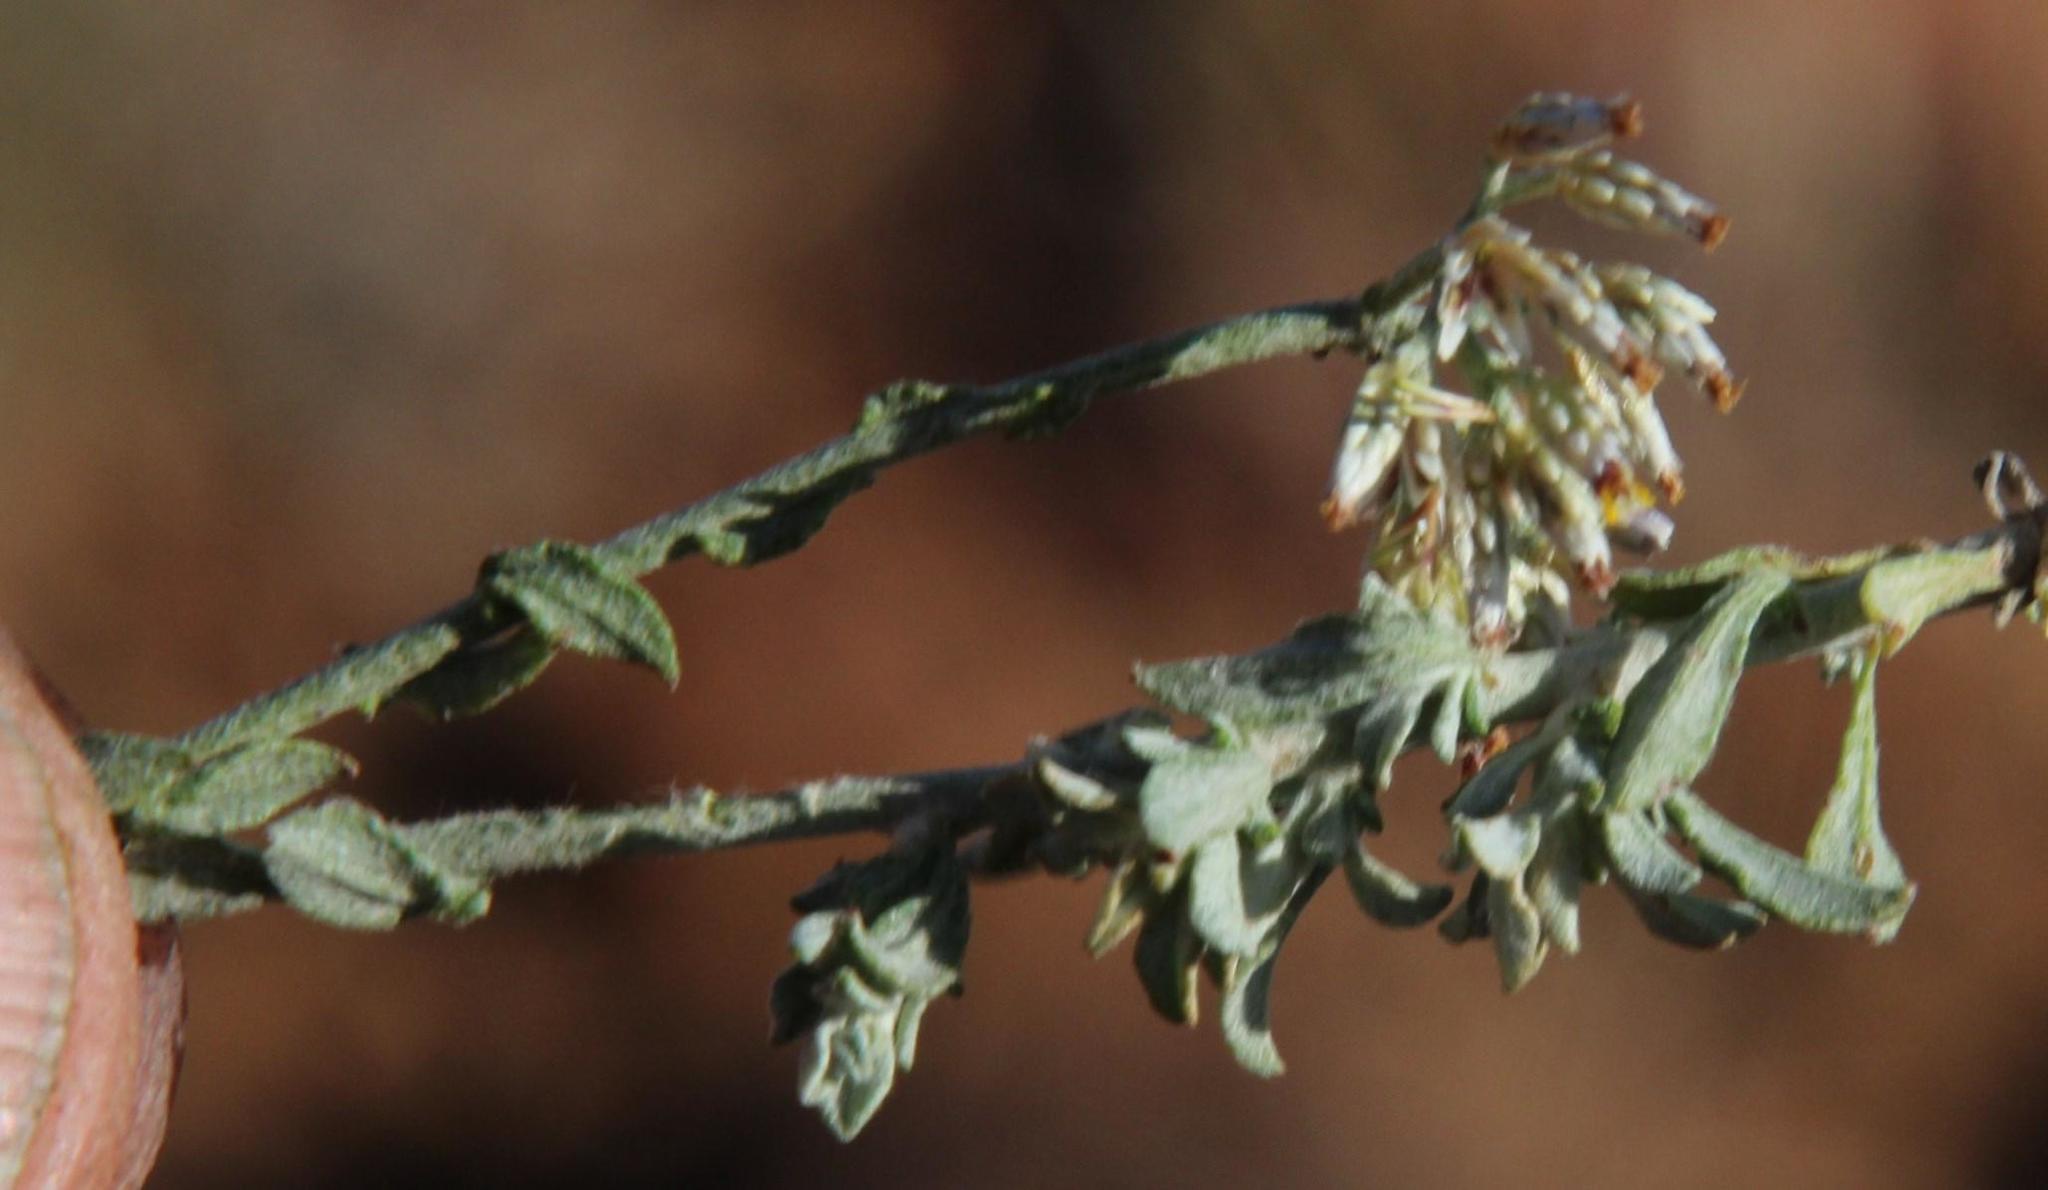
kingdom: Plantae
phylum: Tracheophyta
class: Magnoliopsida
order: Asterales
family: Asteraceae
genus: Helichrysum
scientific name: Helichrysum zeyheri
